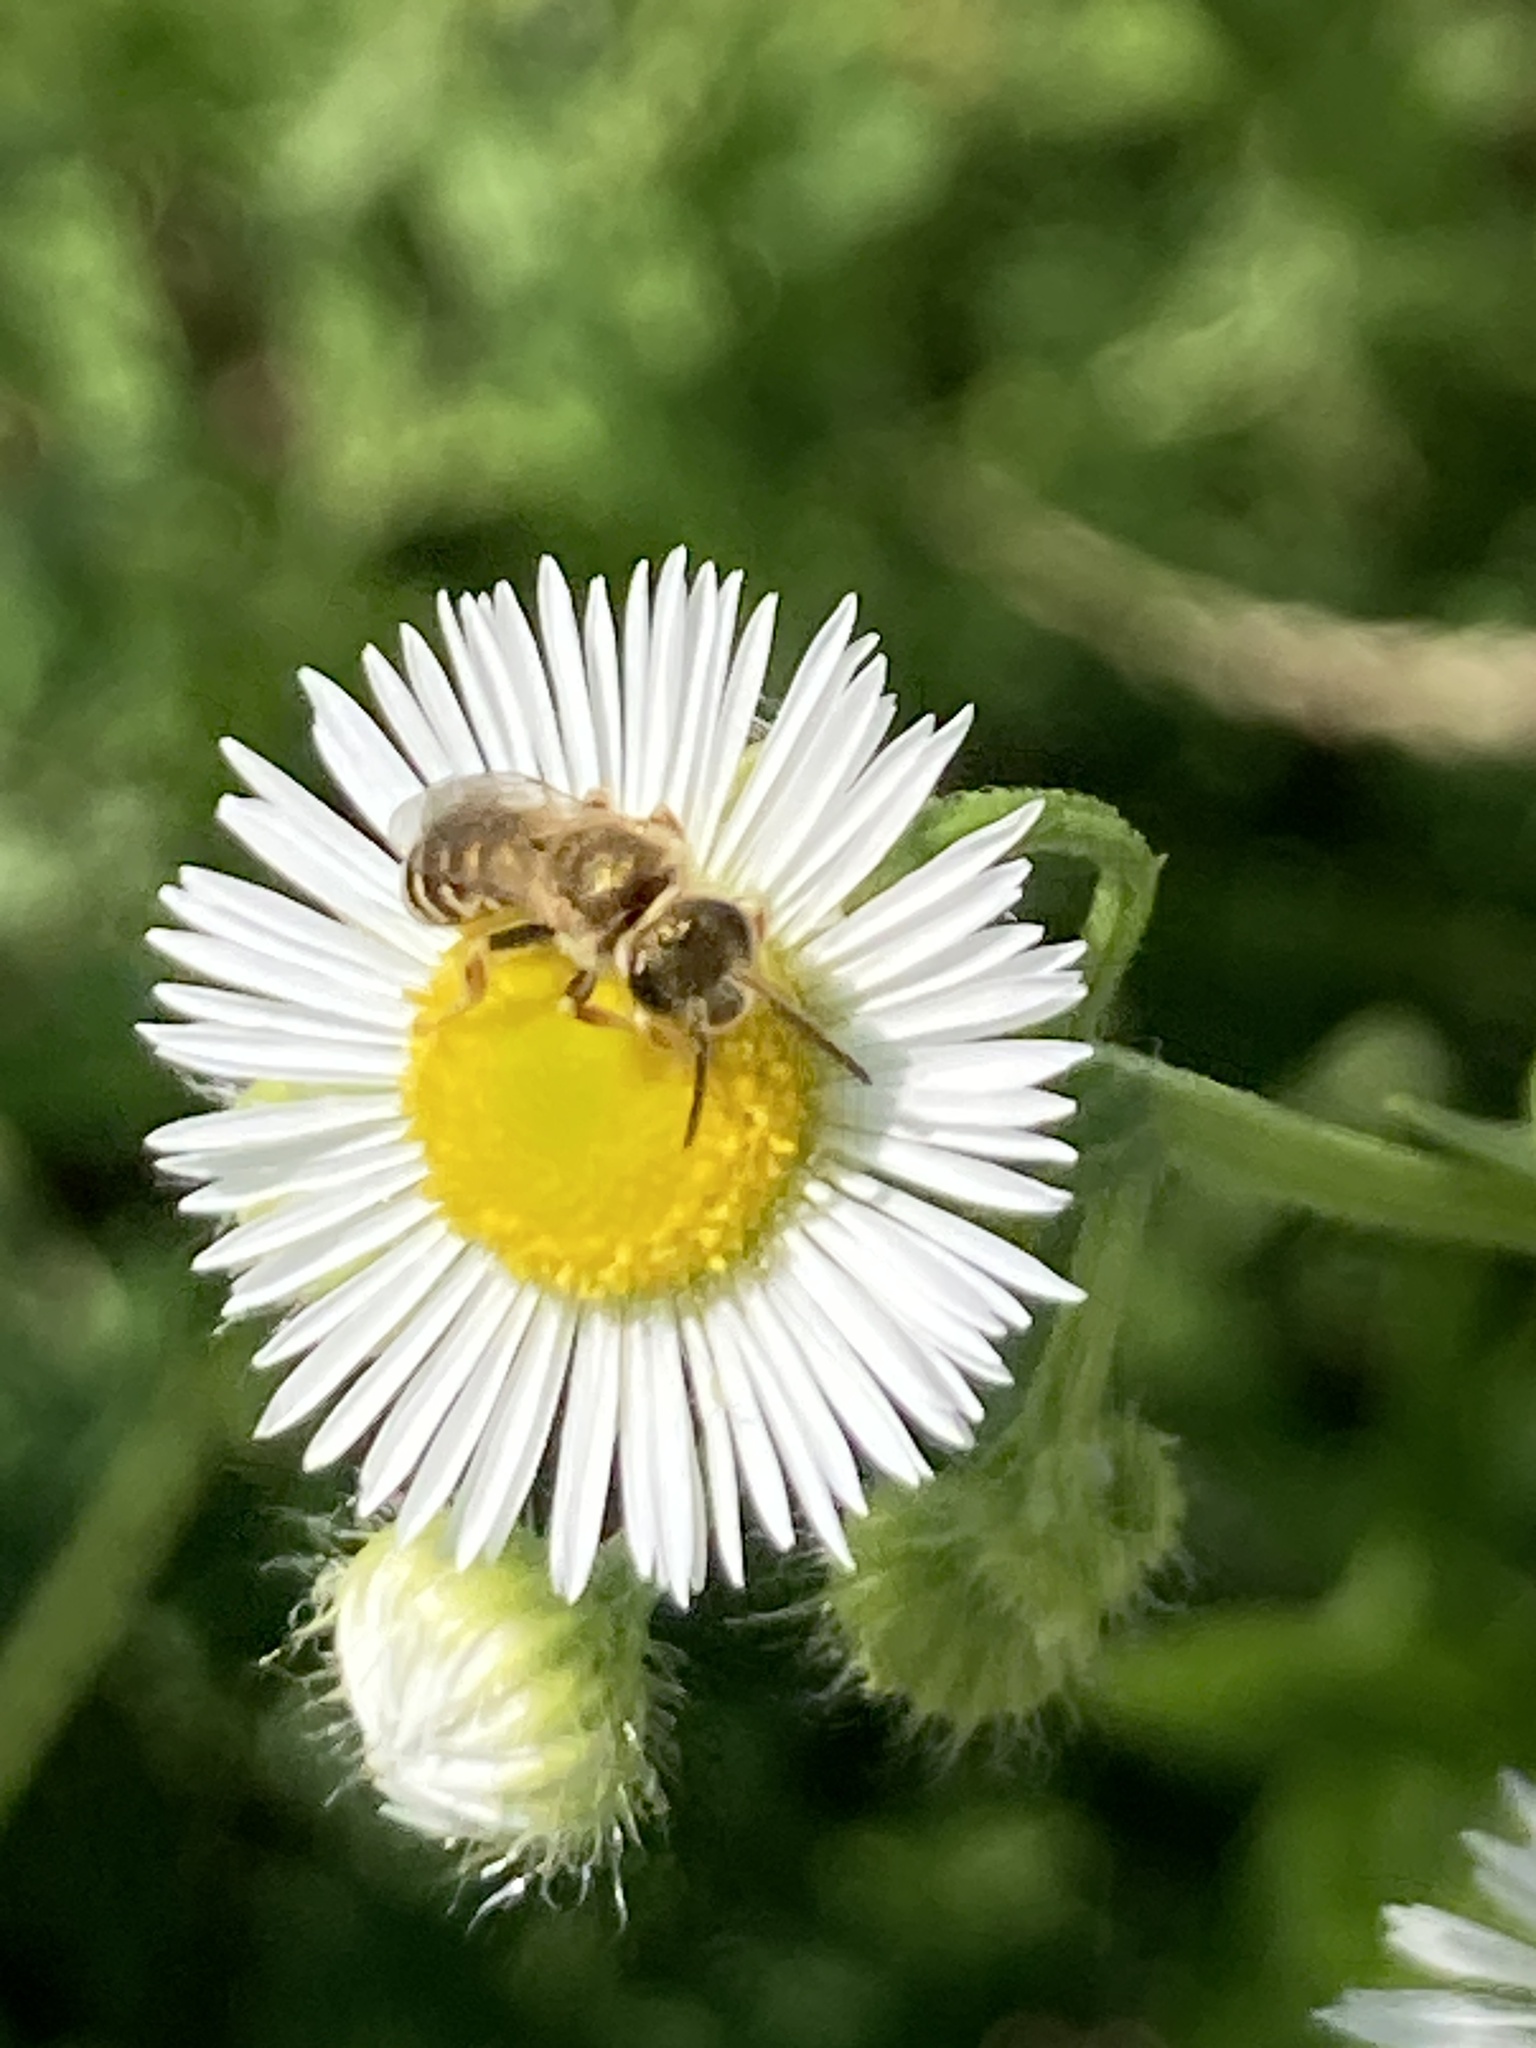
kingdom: Animalia
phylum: Arthropoda
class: Insecta
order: Hymenoptera
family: Halictidae
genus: Halictus
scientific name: Halictus subauratus
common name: Golden furrow bee
